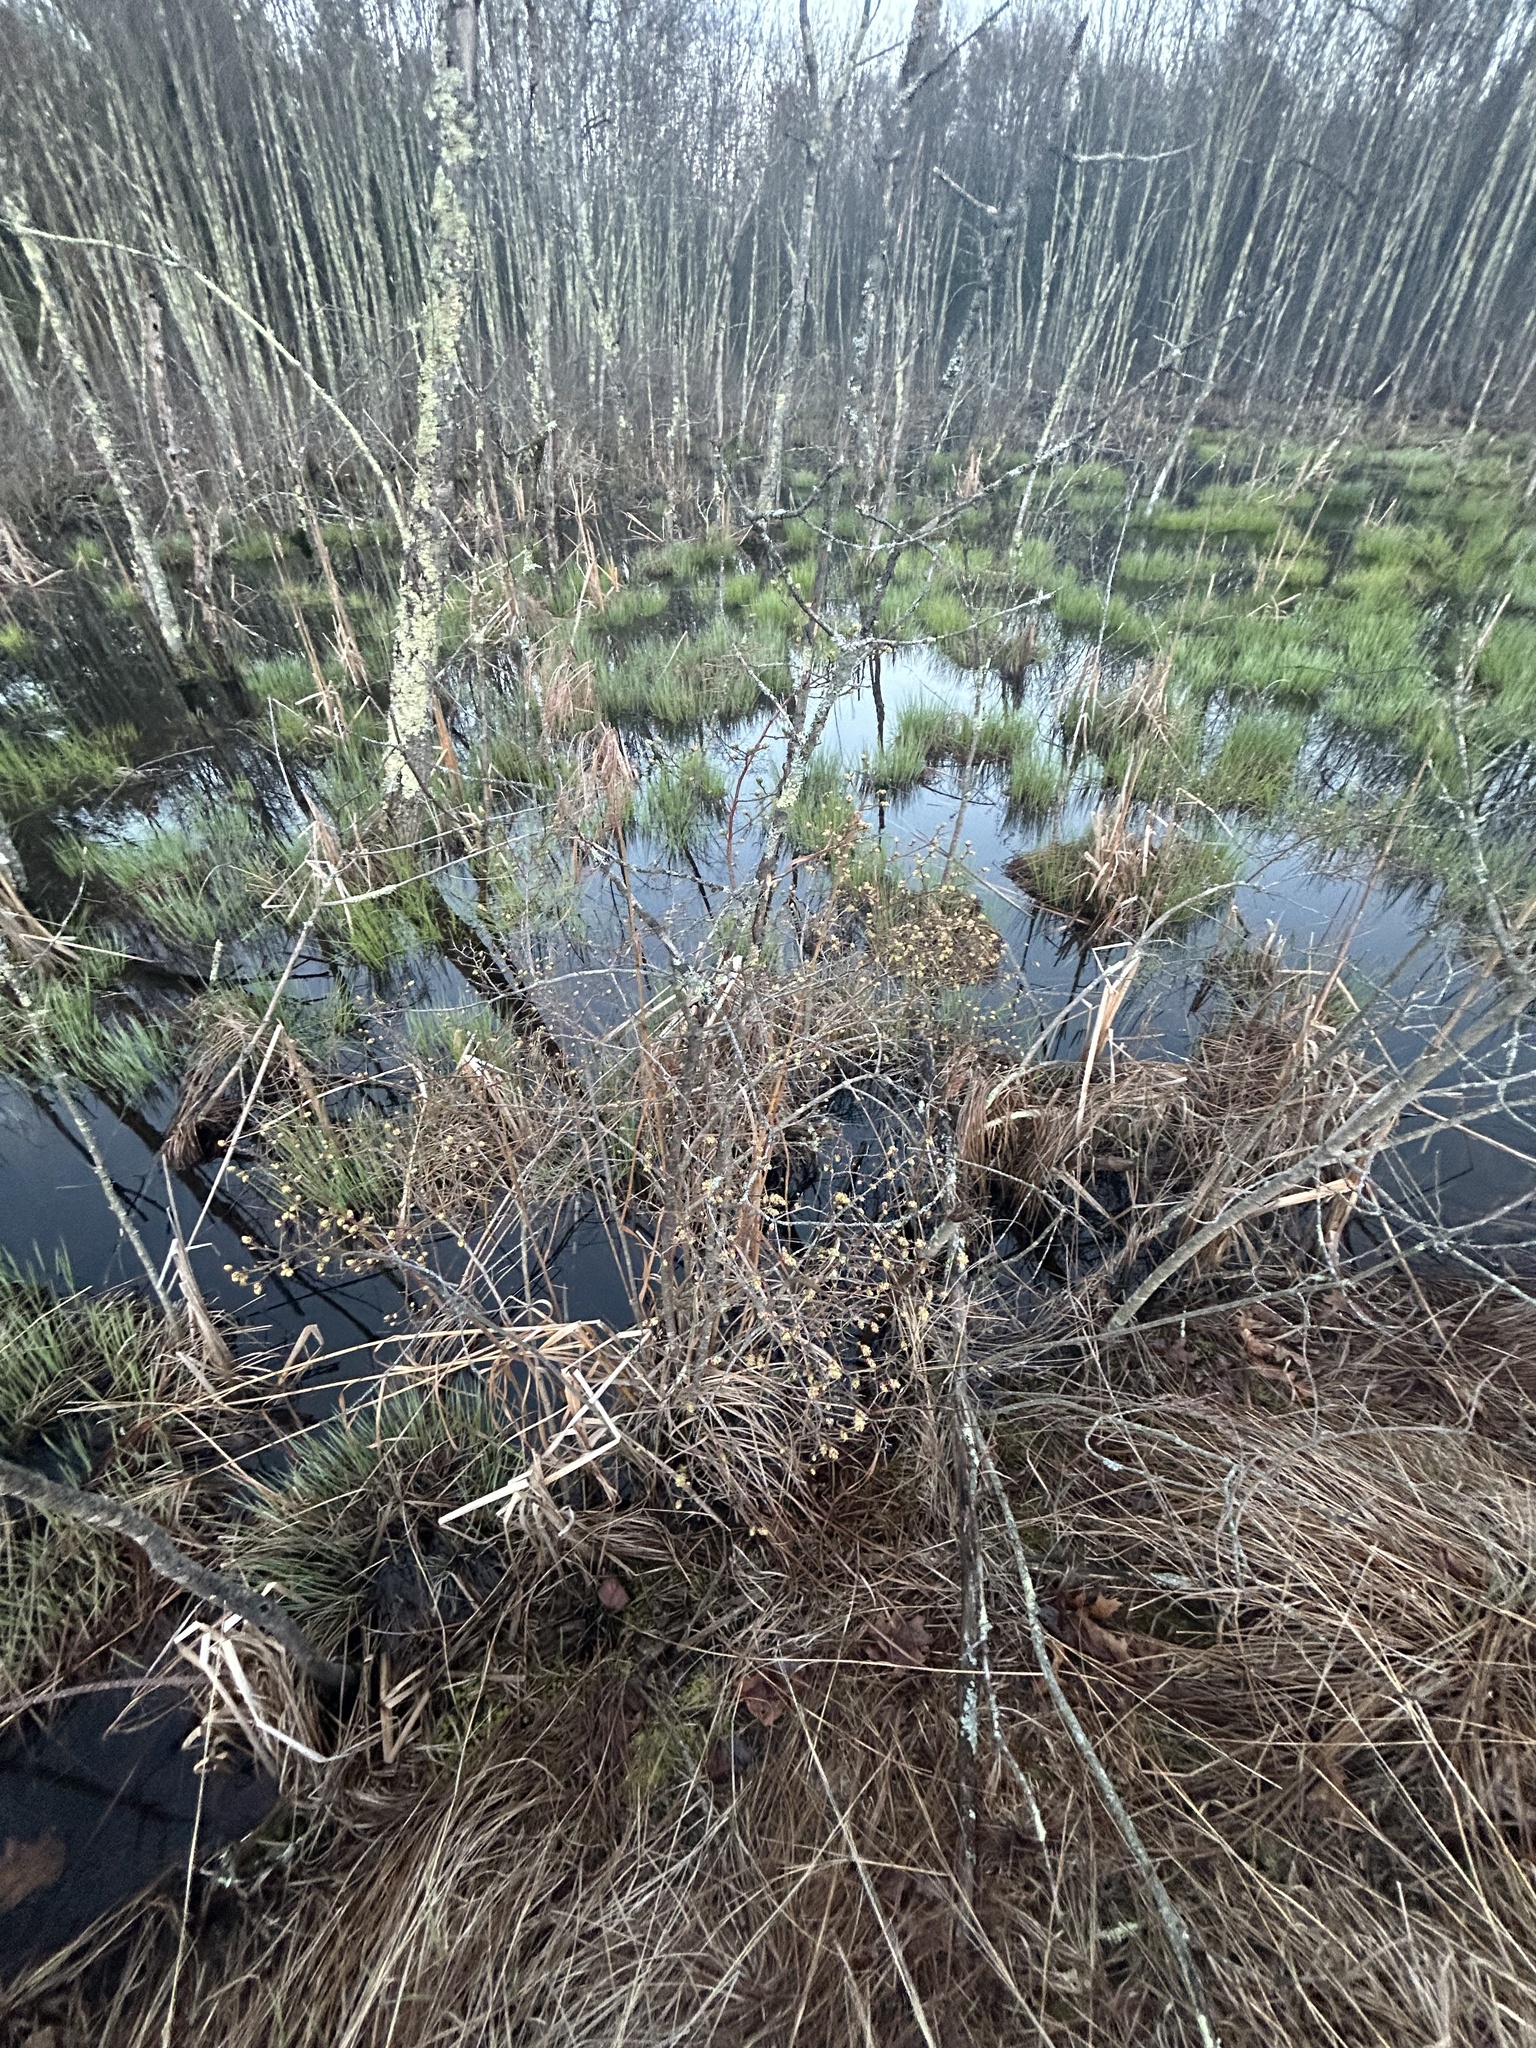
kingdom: Plantae
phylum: Tracheophyta
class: Magnoliopsida
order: Ericales
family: Ericaceae
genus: Vaccinium
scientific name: Vaccinium corymbosum
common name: Blueberry
